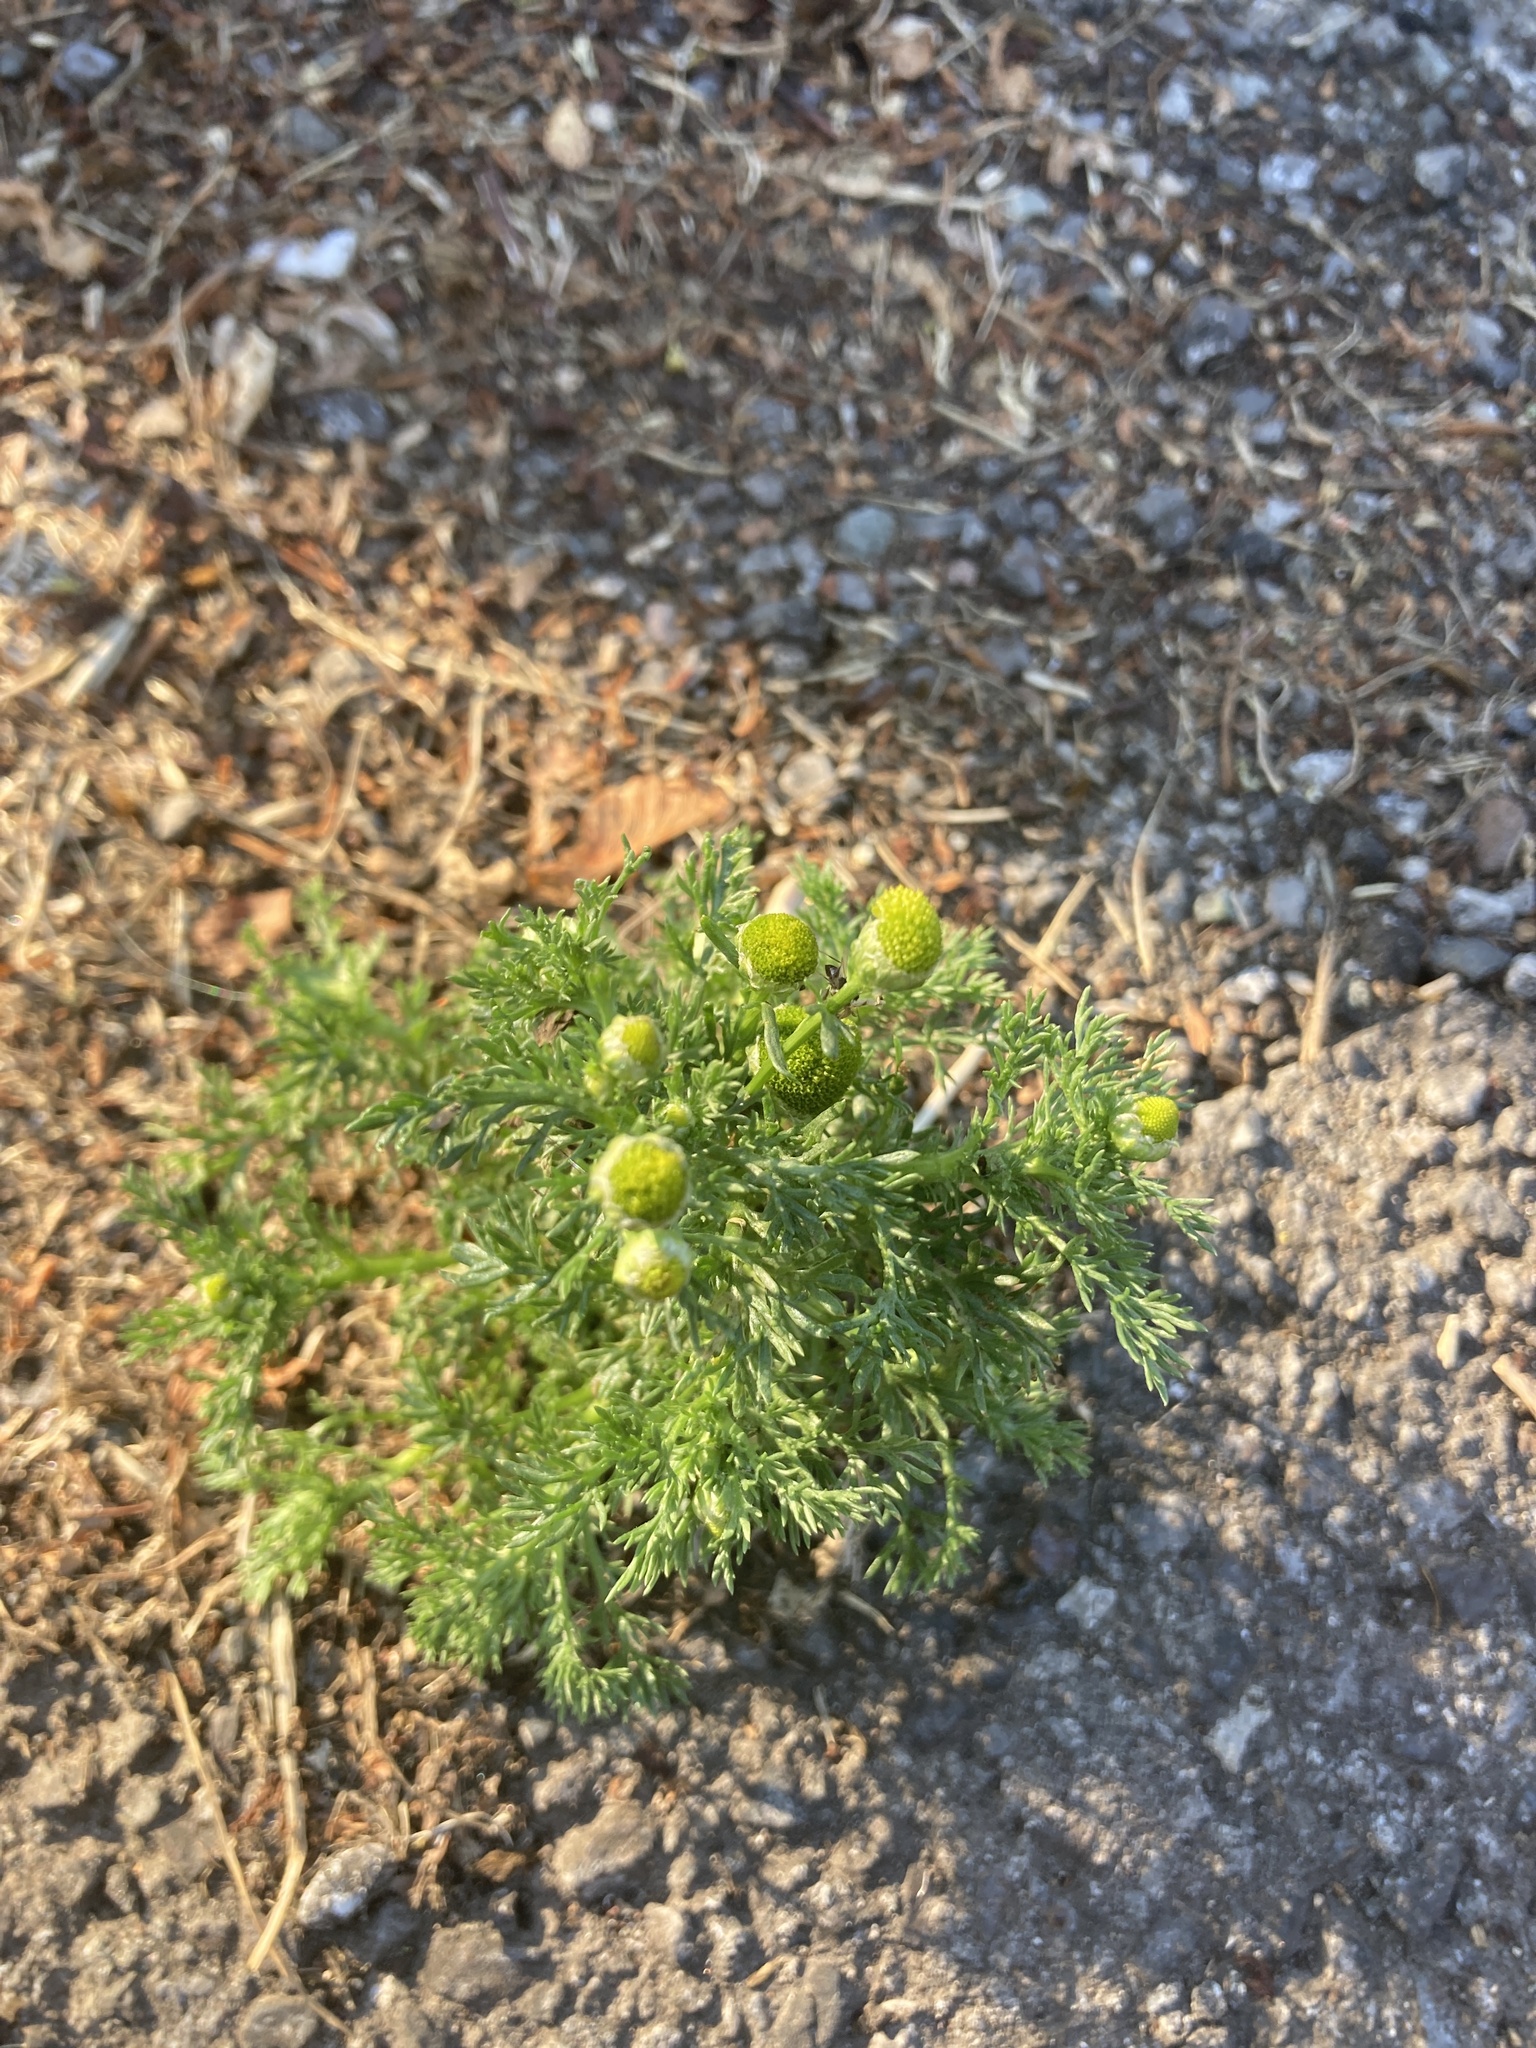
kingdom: Plantae
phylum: Tracheophyta
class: Magnoliopsida
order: Asterales
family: Asteraceae
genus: Matricaria
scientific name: Matricaria discoidea
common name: Disc mayweed
